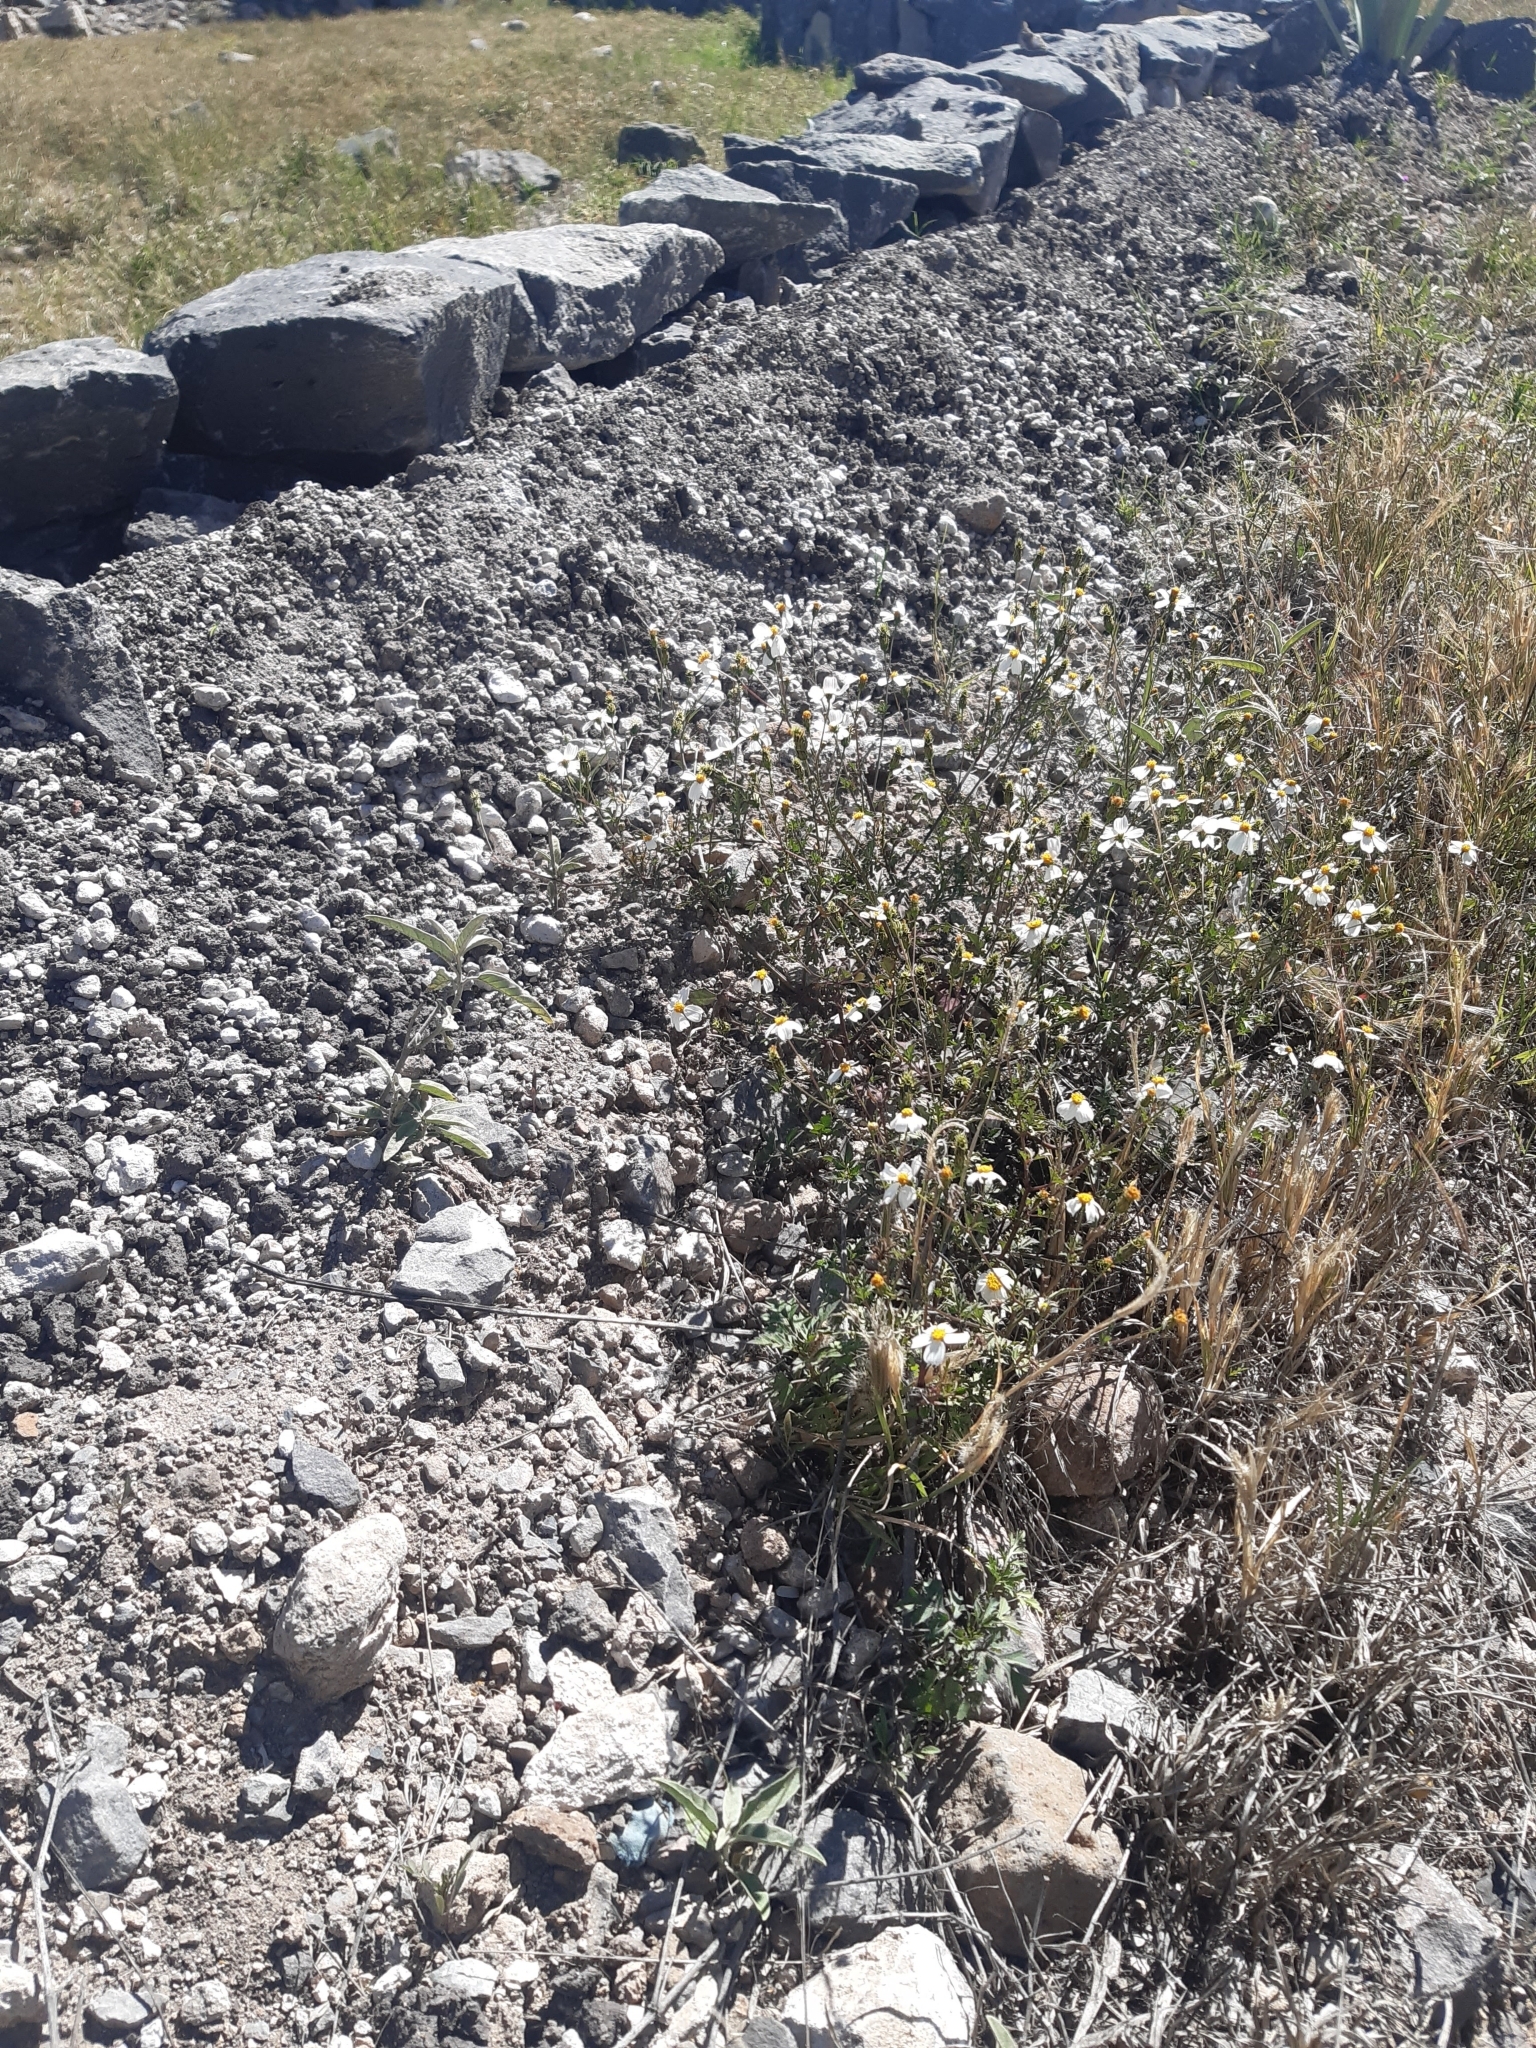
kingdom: Plantae
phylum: Tracheophyta
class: Magnoliopsida
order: Asterales
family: Asteraceae
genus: Bidens
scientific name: Bidens odorata
